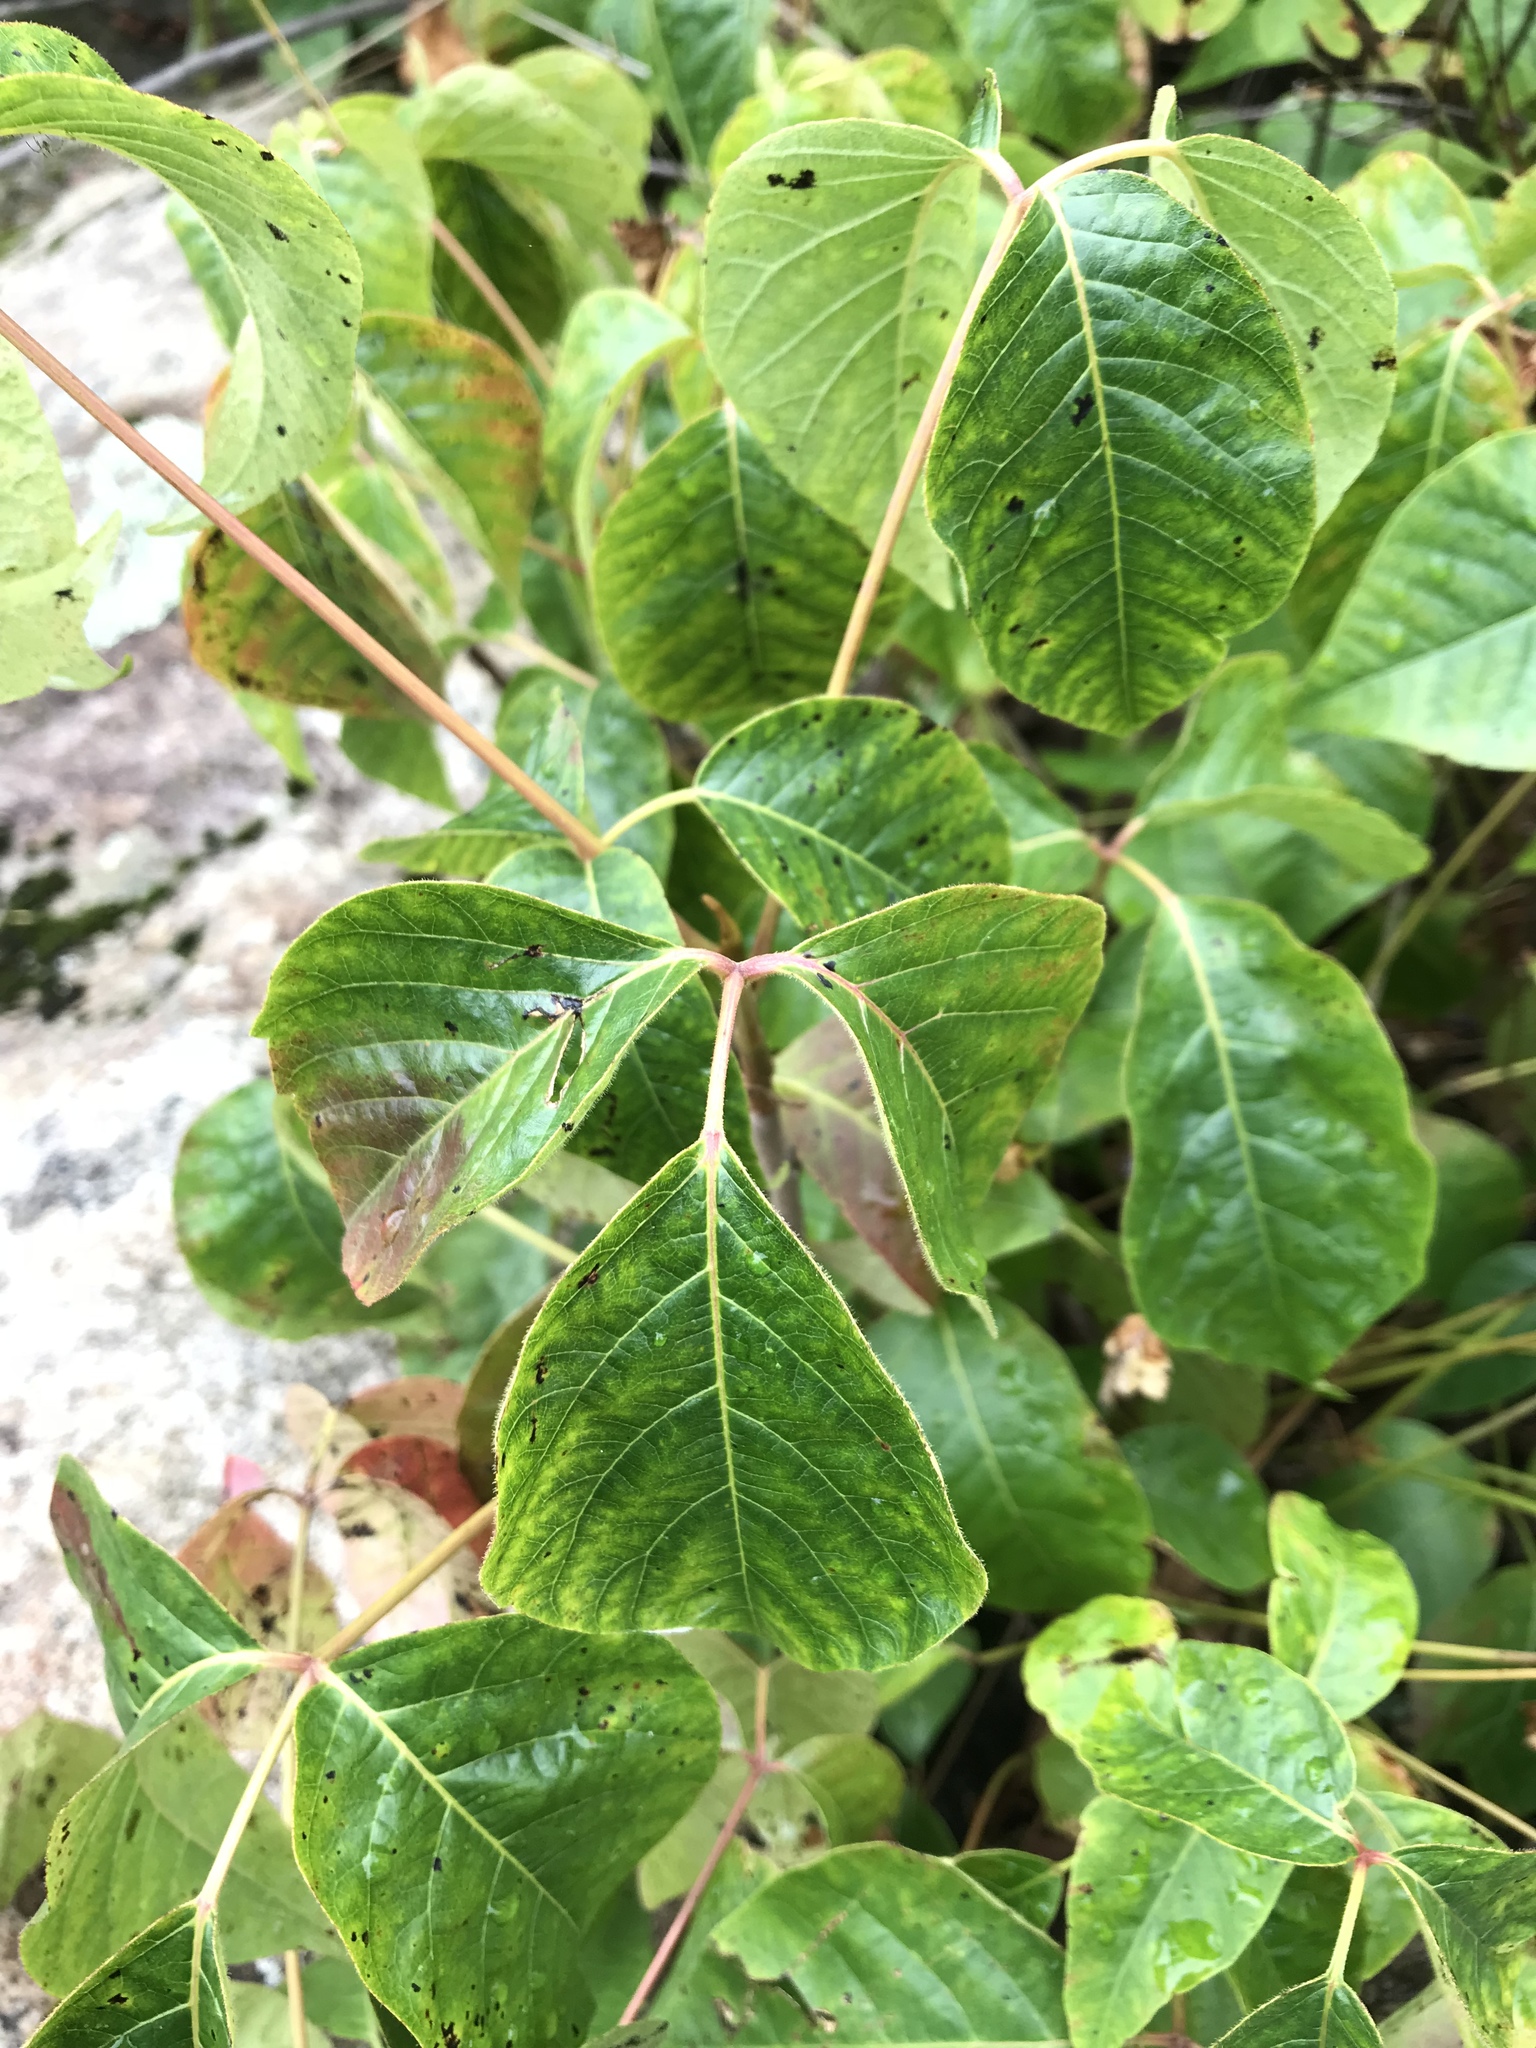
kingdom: Plantae
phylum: Tracheophyta
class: Magnoliopsida
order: Sapindales
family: Anacardiaceae
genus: Toxicodendron
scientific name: Toxicodendron rydbergii
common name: Rydberg's poison-ivy
